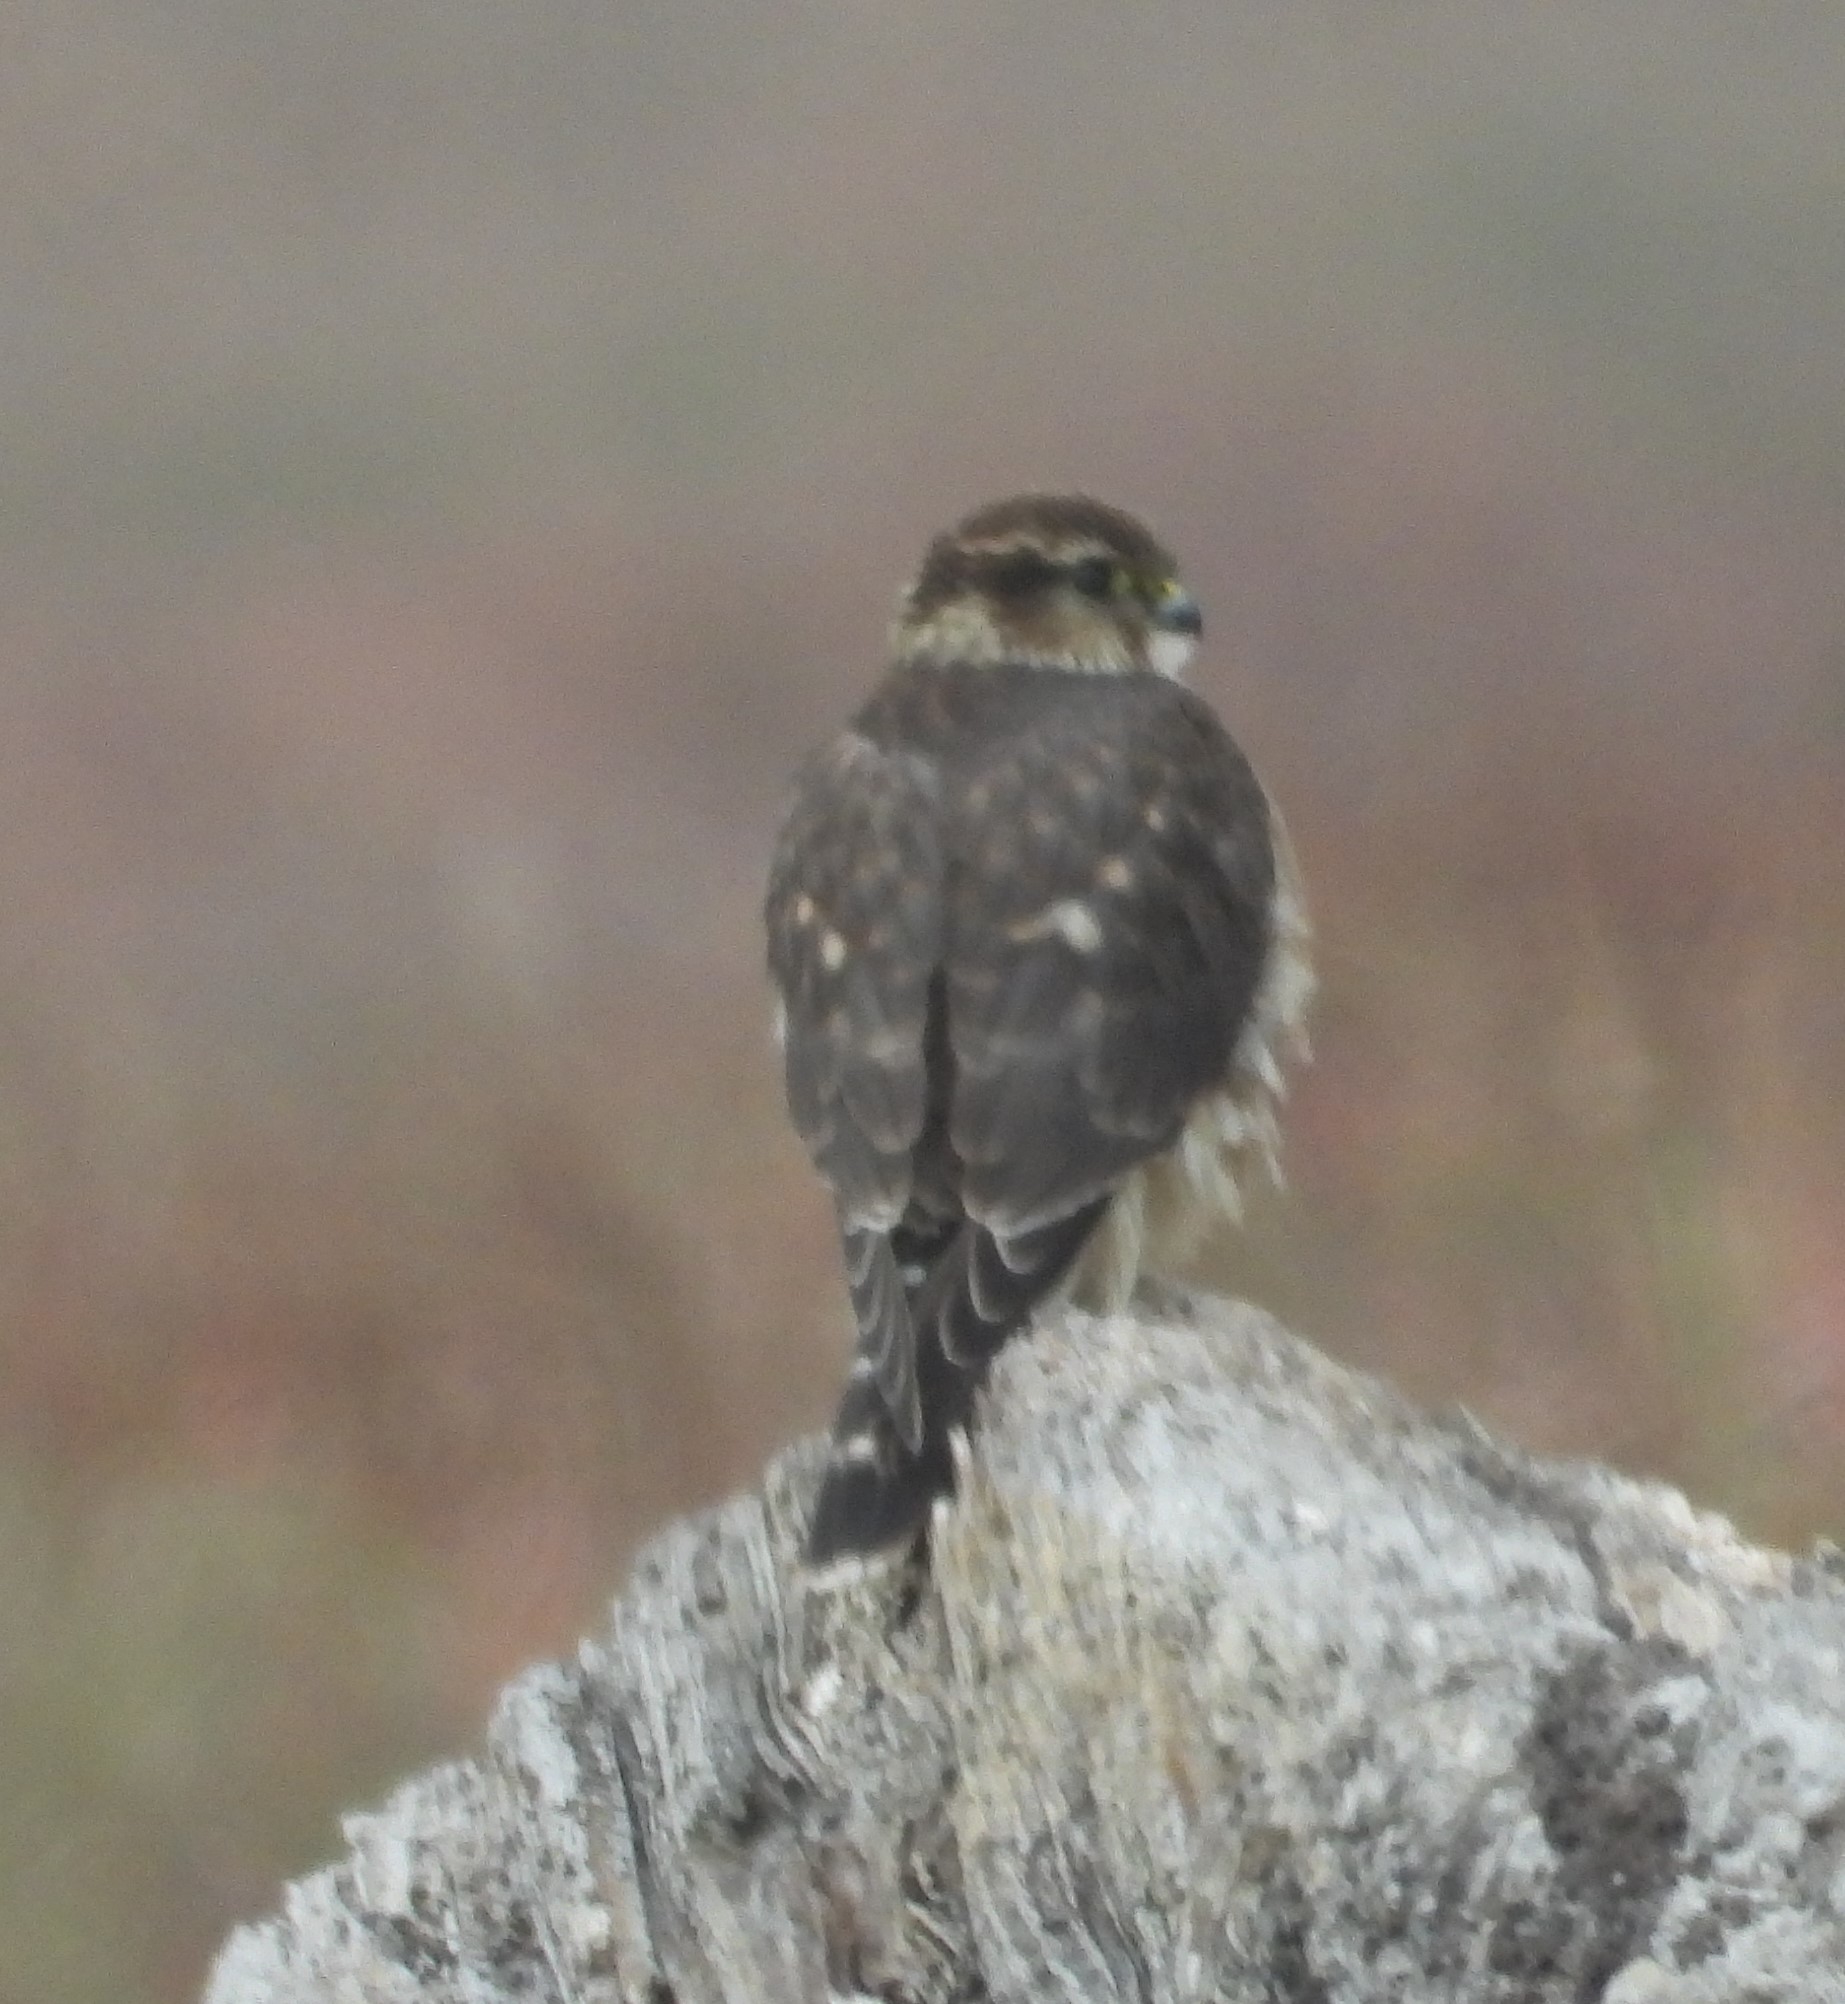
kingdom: Animalia
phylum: Chordata
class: Aves
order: Falconiformes
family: Falconidae
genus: Falco
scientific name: Falco columbarius
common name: Merlin
